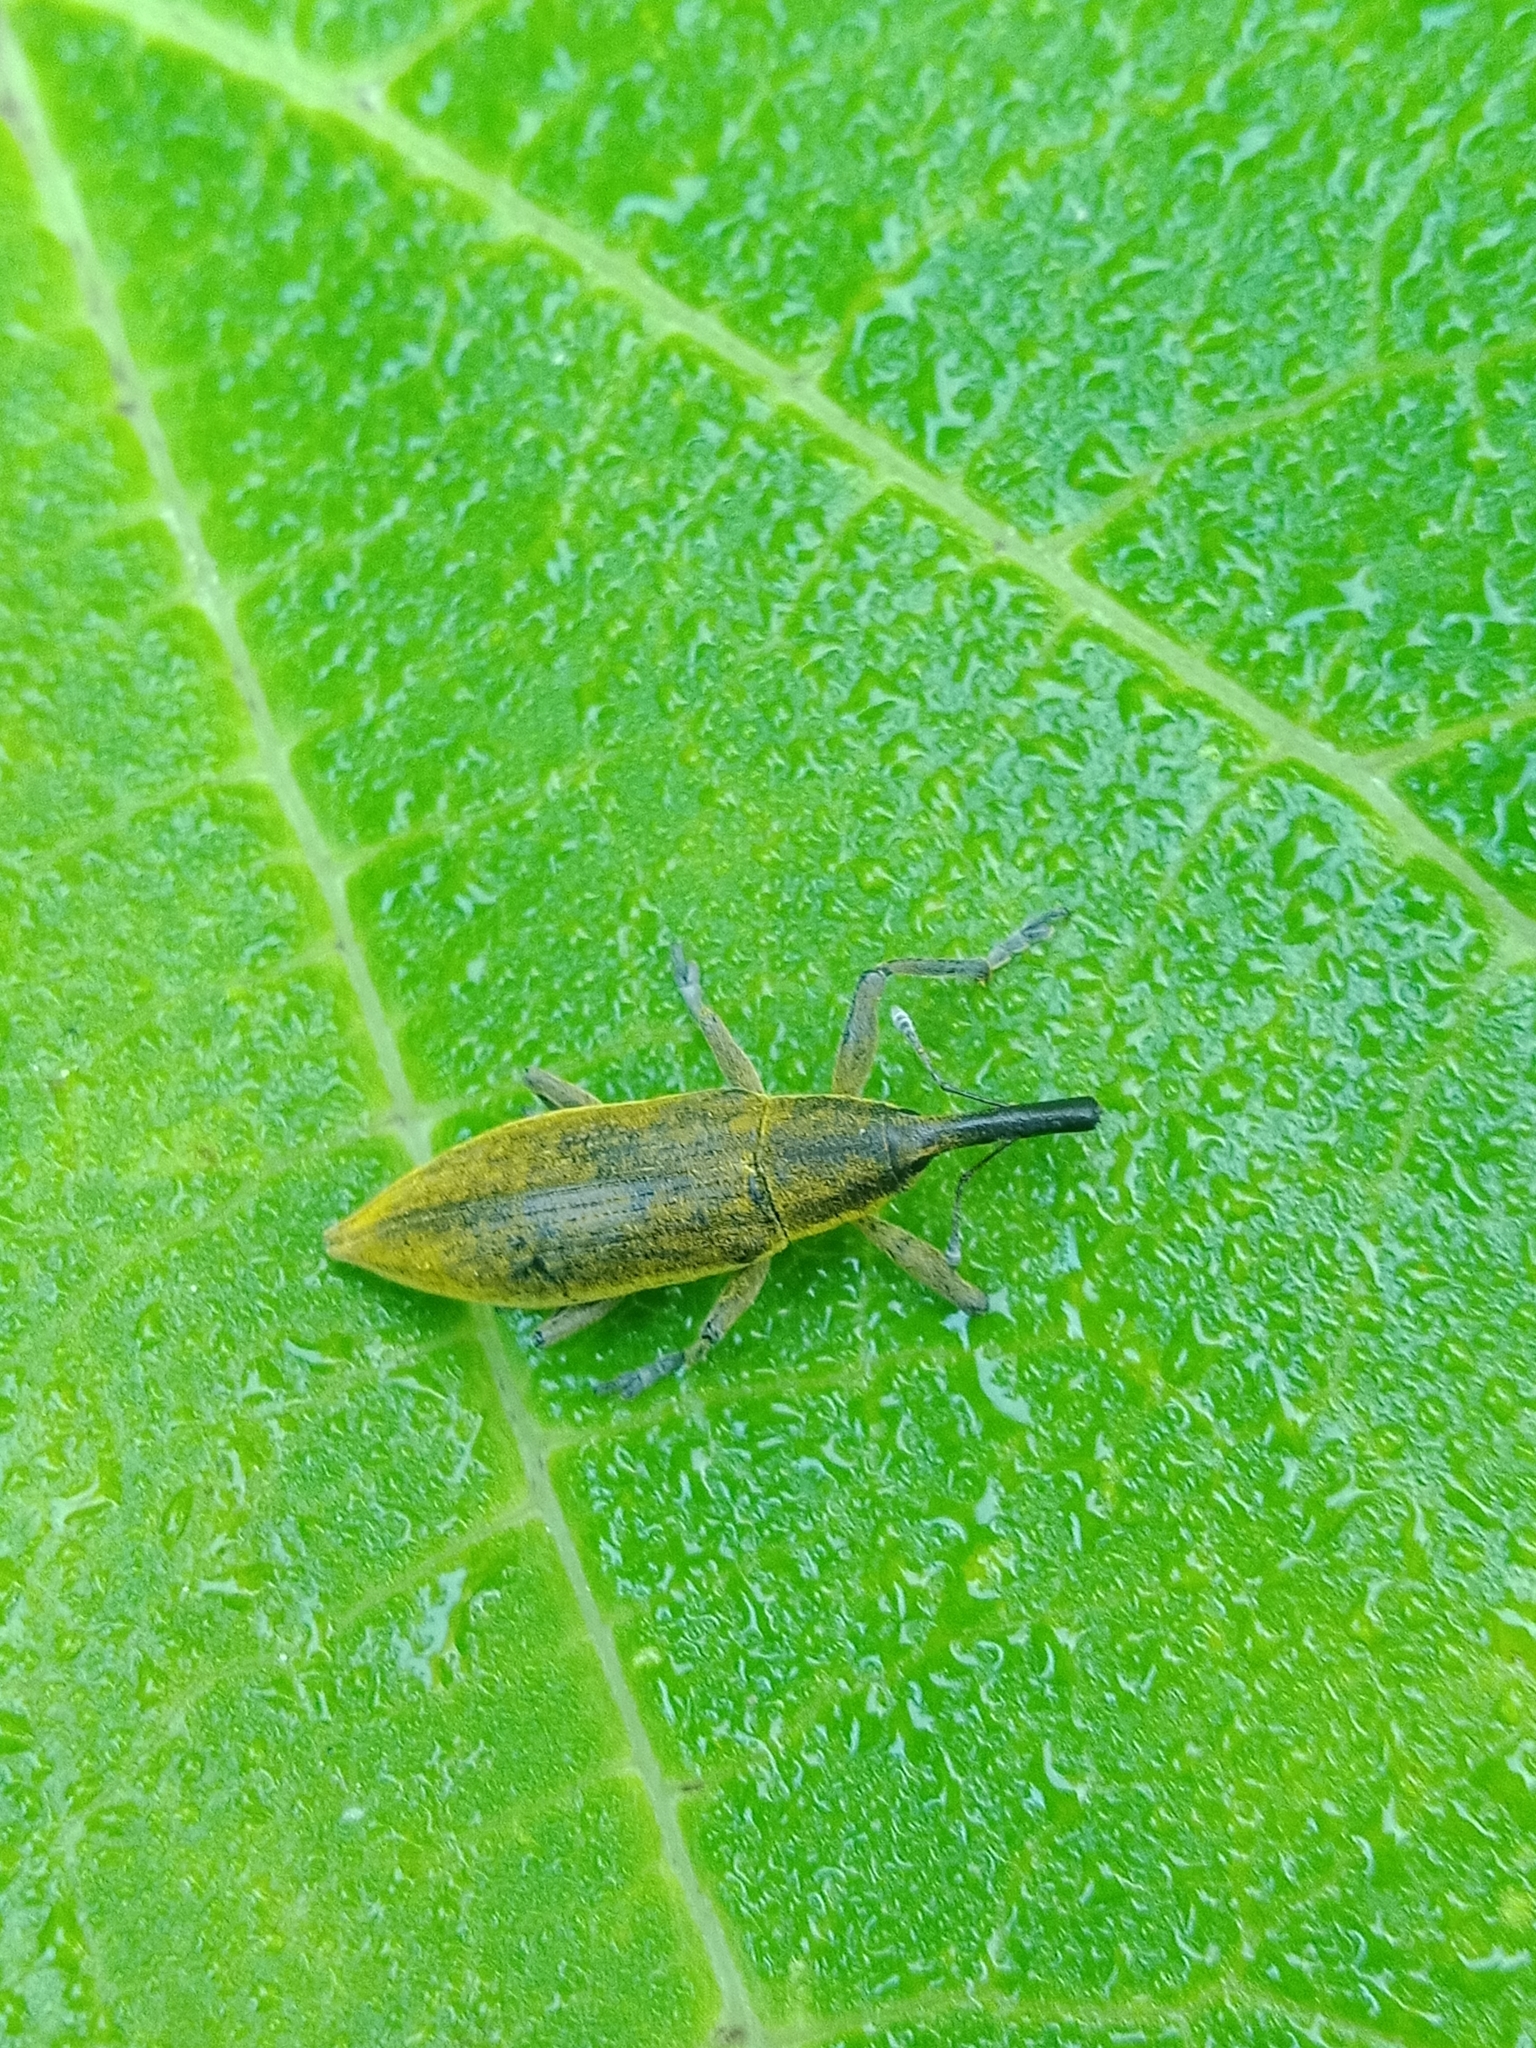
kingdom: Animalia
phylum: Arthropoda
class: Insecta
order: Coleoptera
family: Curculionidae
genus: Lixus
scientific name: Lixus iridis
